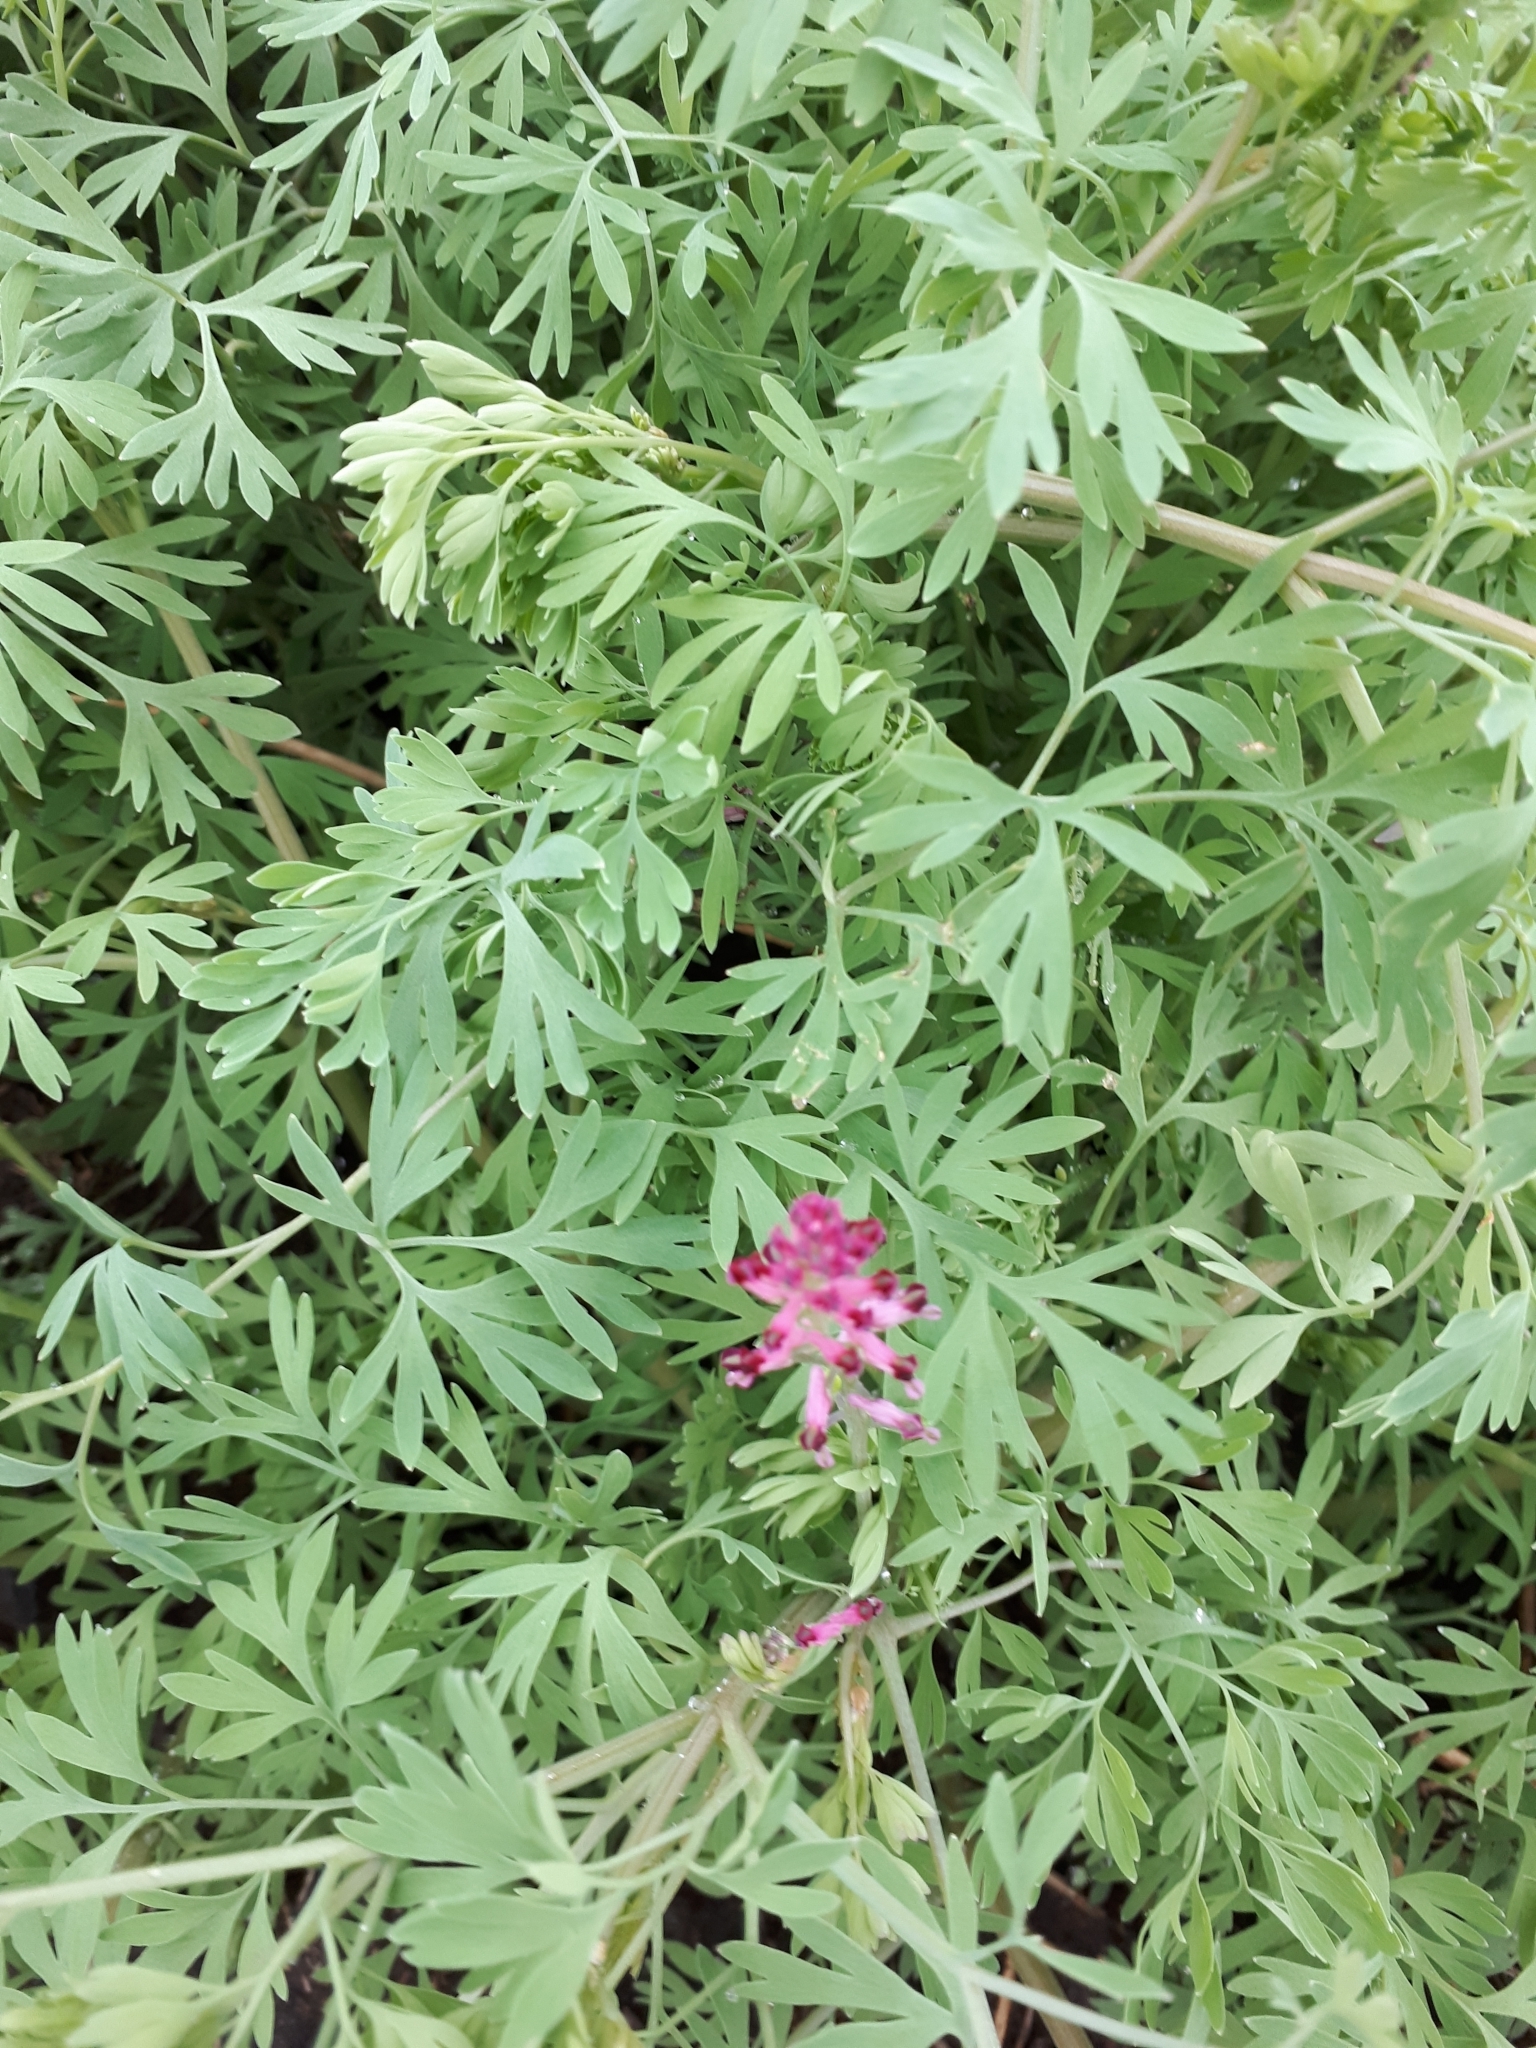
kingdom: Plantae
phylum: Tracheophyta
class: Magnoliopsida
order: Ranunculales
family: Papaveraceae
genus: Fumaria
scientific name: Fumaria officinalis
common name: Common fumitory
